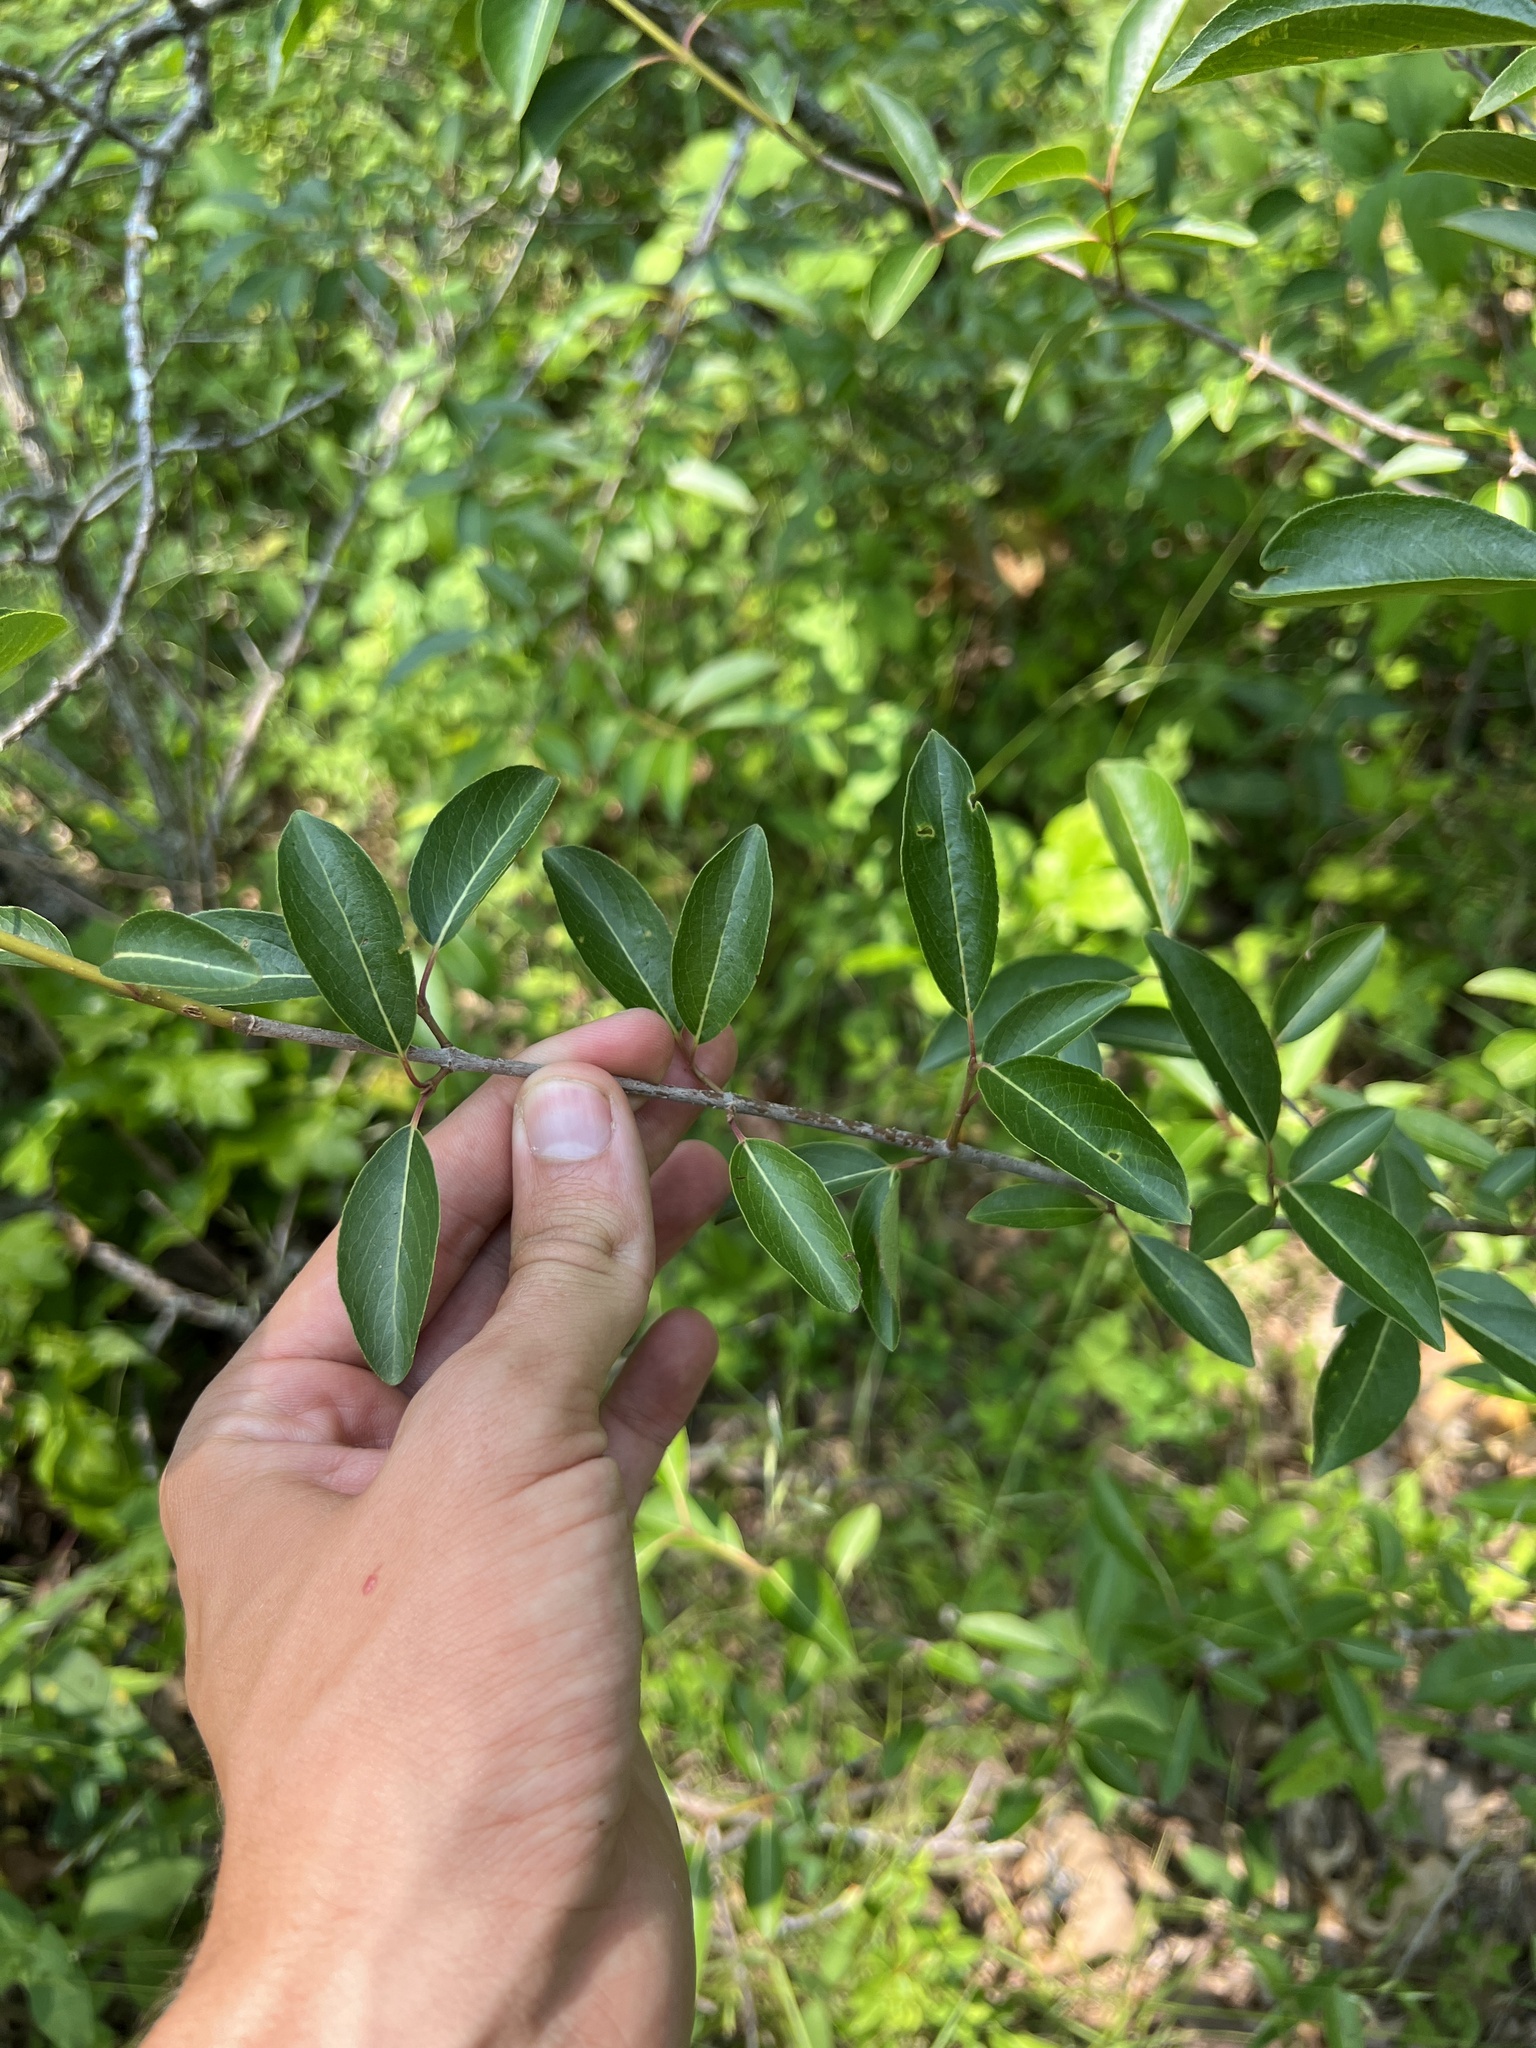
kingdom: Plantae
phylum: Tracheophyta
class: Magnoliopsida
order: Dipsacales
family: Viburnaceae
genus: Viburnum
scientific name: Viburnum prunifolium
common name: Black haw
